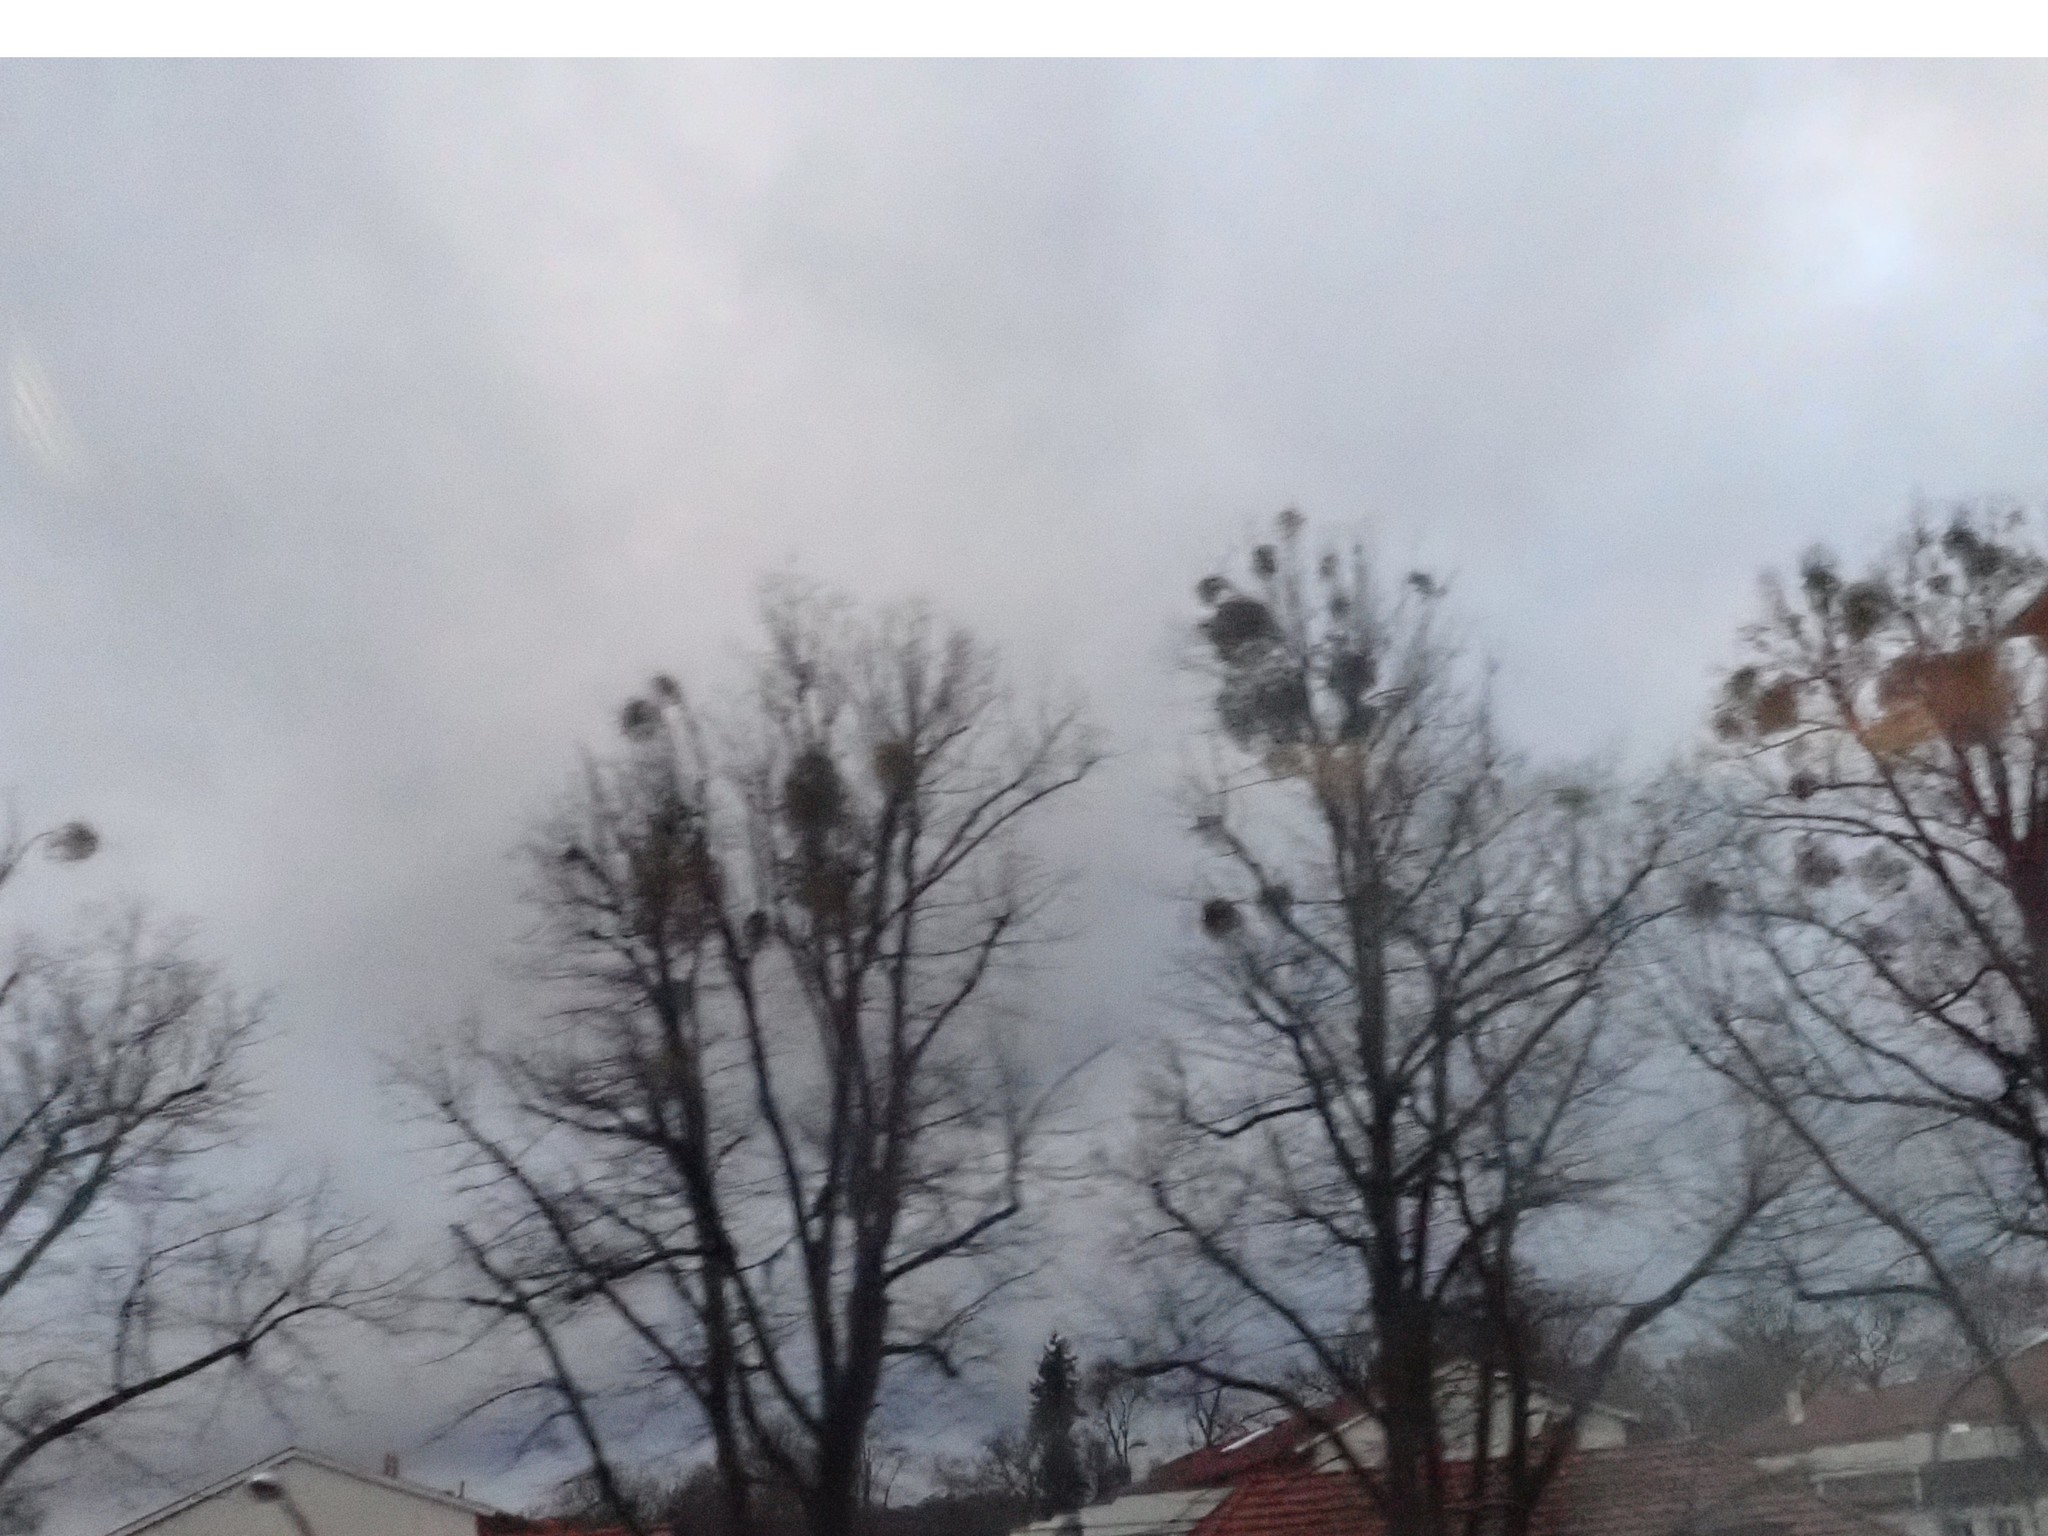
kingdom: Plantae
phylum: Tracheophyta
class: Magnoliopsida
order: Santalales
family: Viscaceae
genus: Viscum
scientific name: Viscum album
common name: Mistletoe
